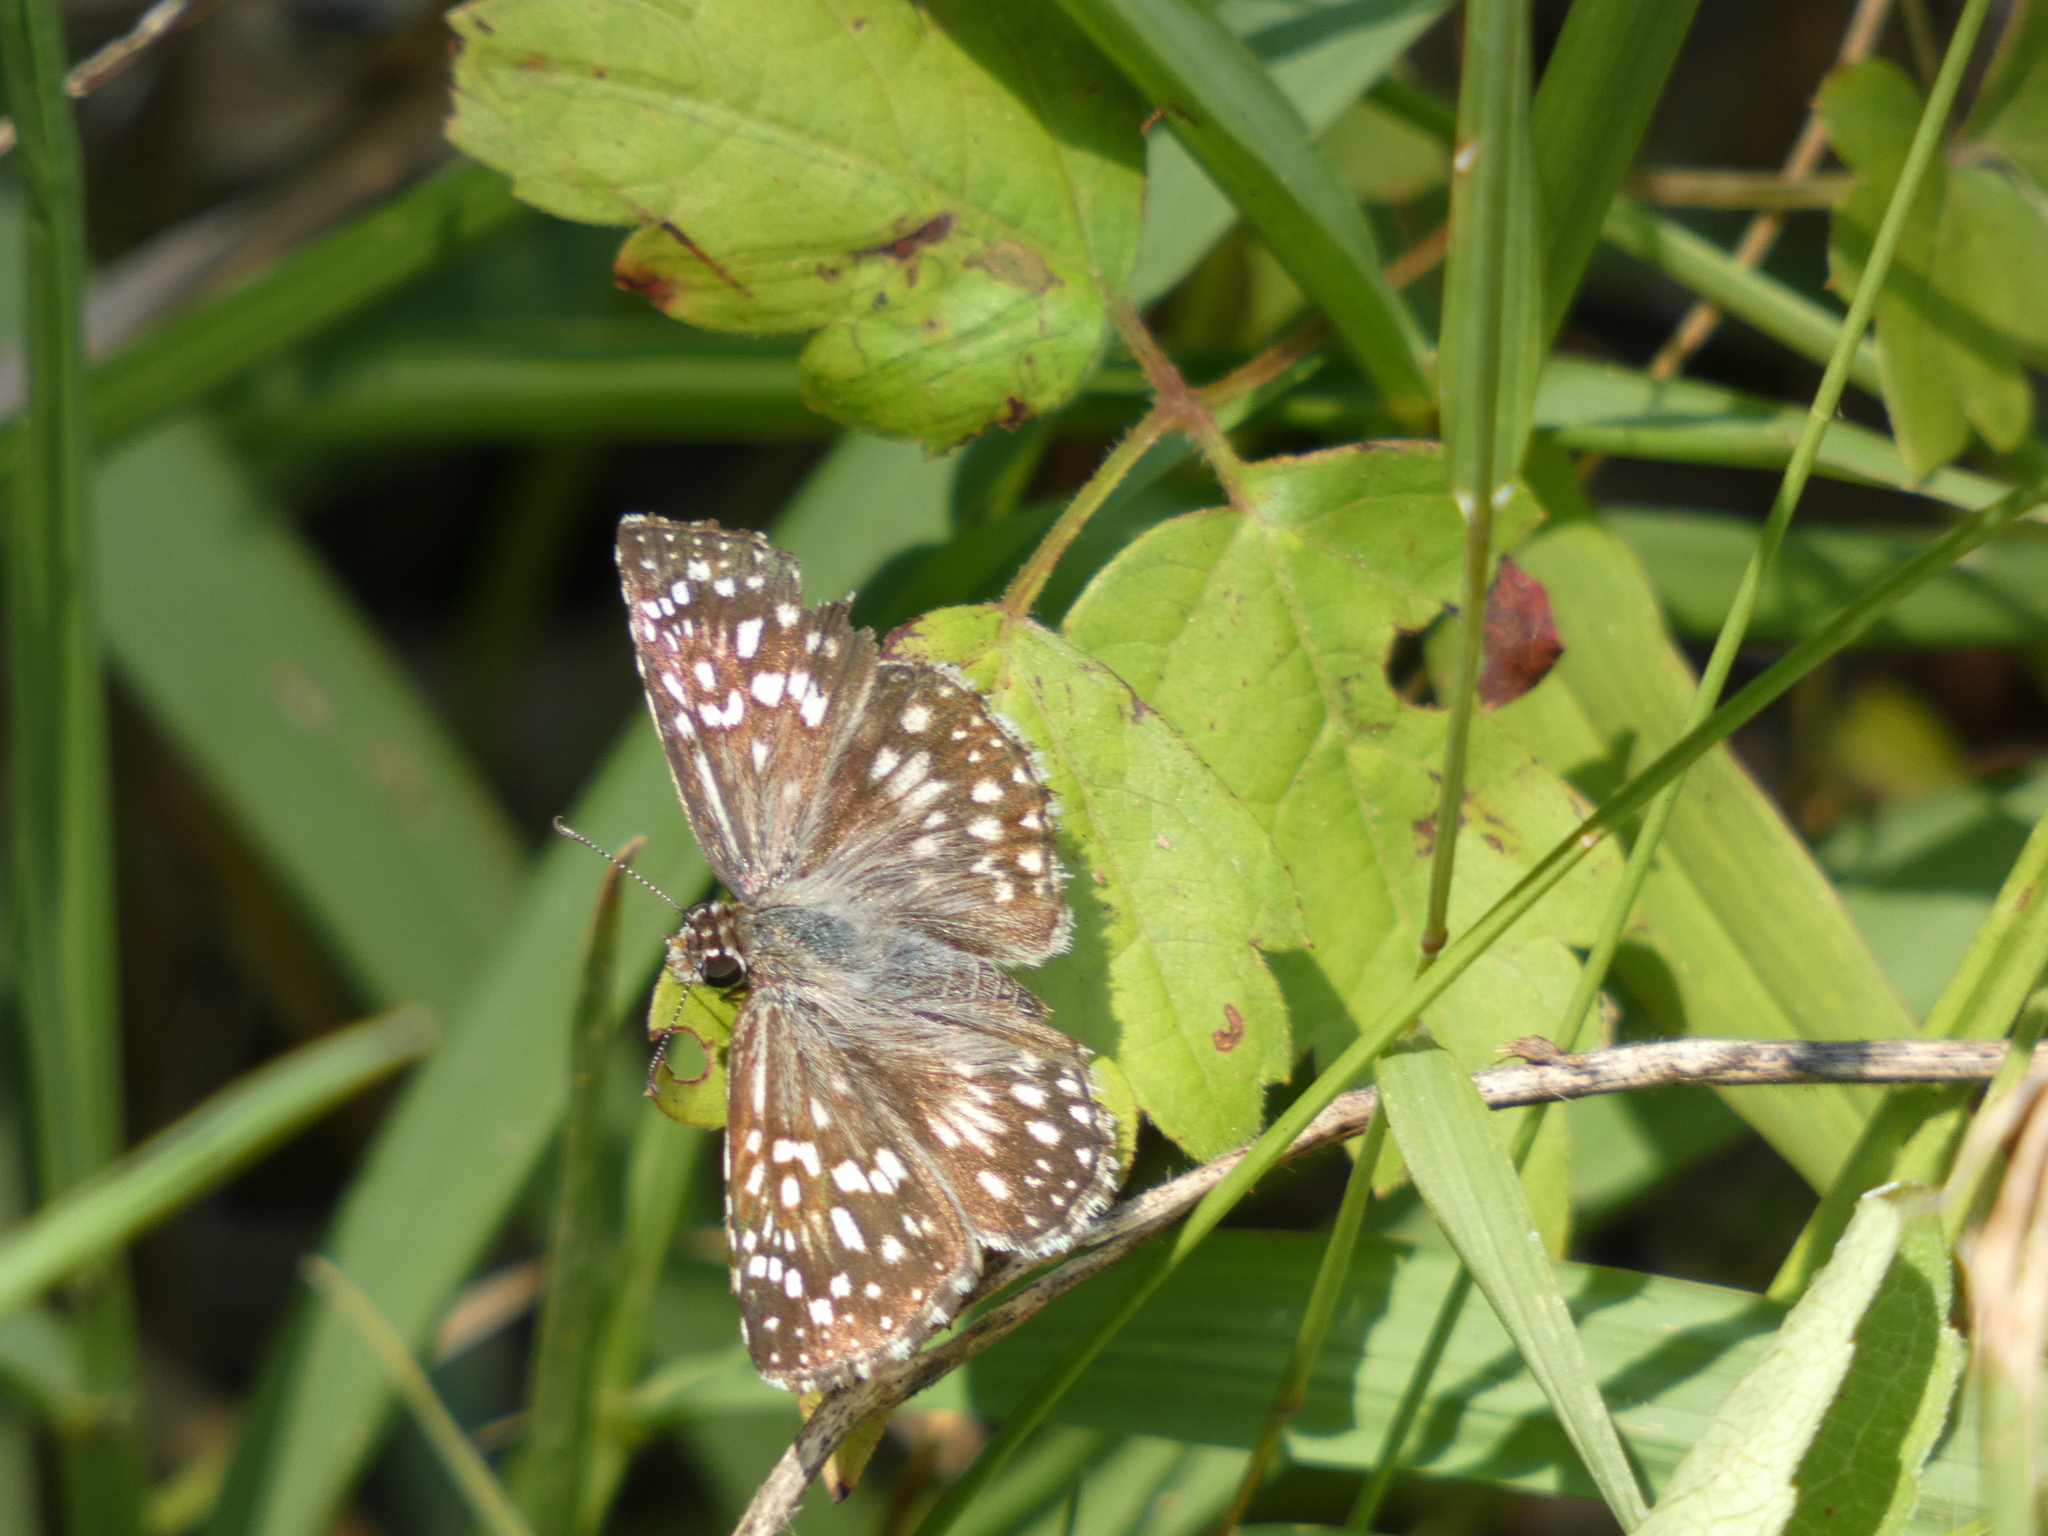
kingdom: Animalia
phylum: Arthropoda
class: Insecta
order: Lepidoptera
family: Hesperiidae
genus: Pyrgus
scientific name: Pyrgus oileus
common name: Tropical checkered-skipper
